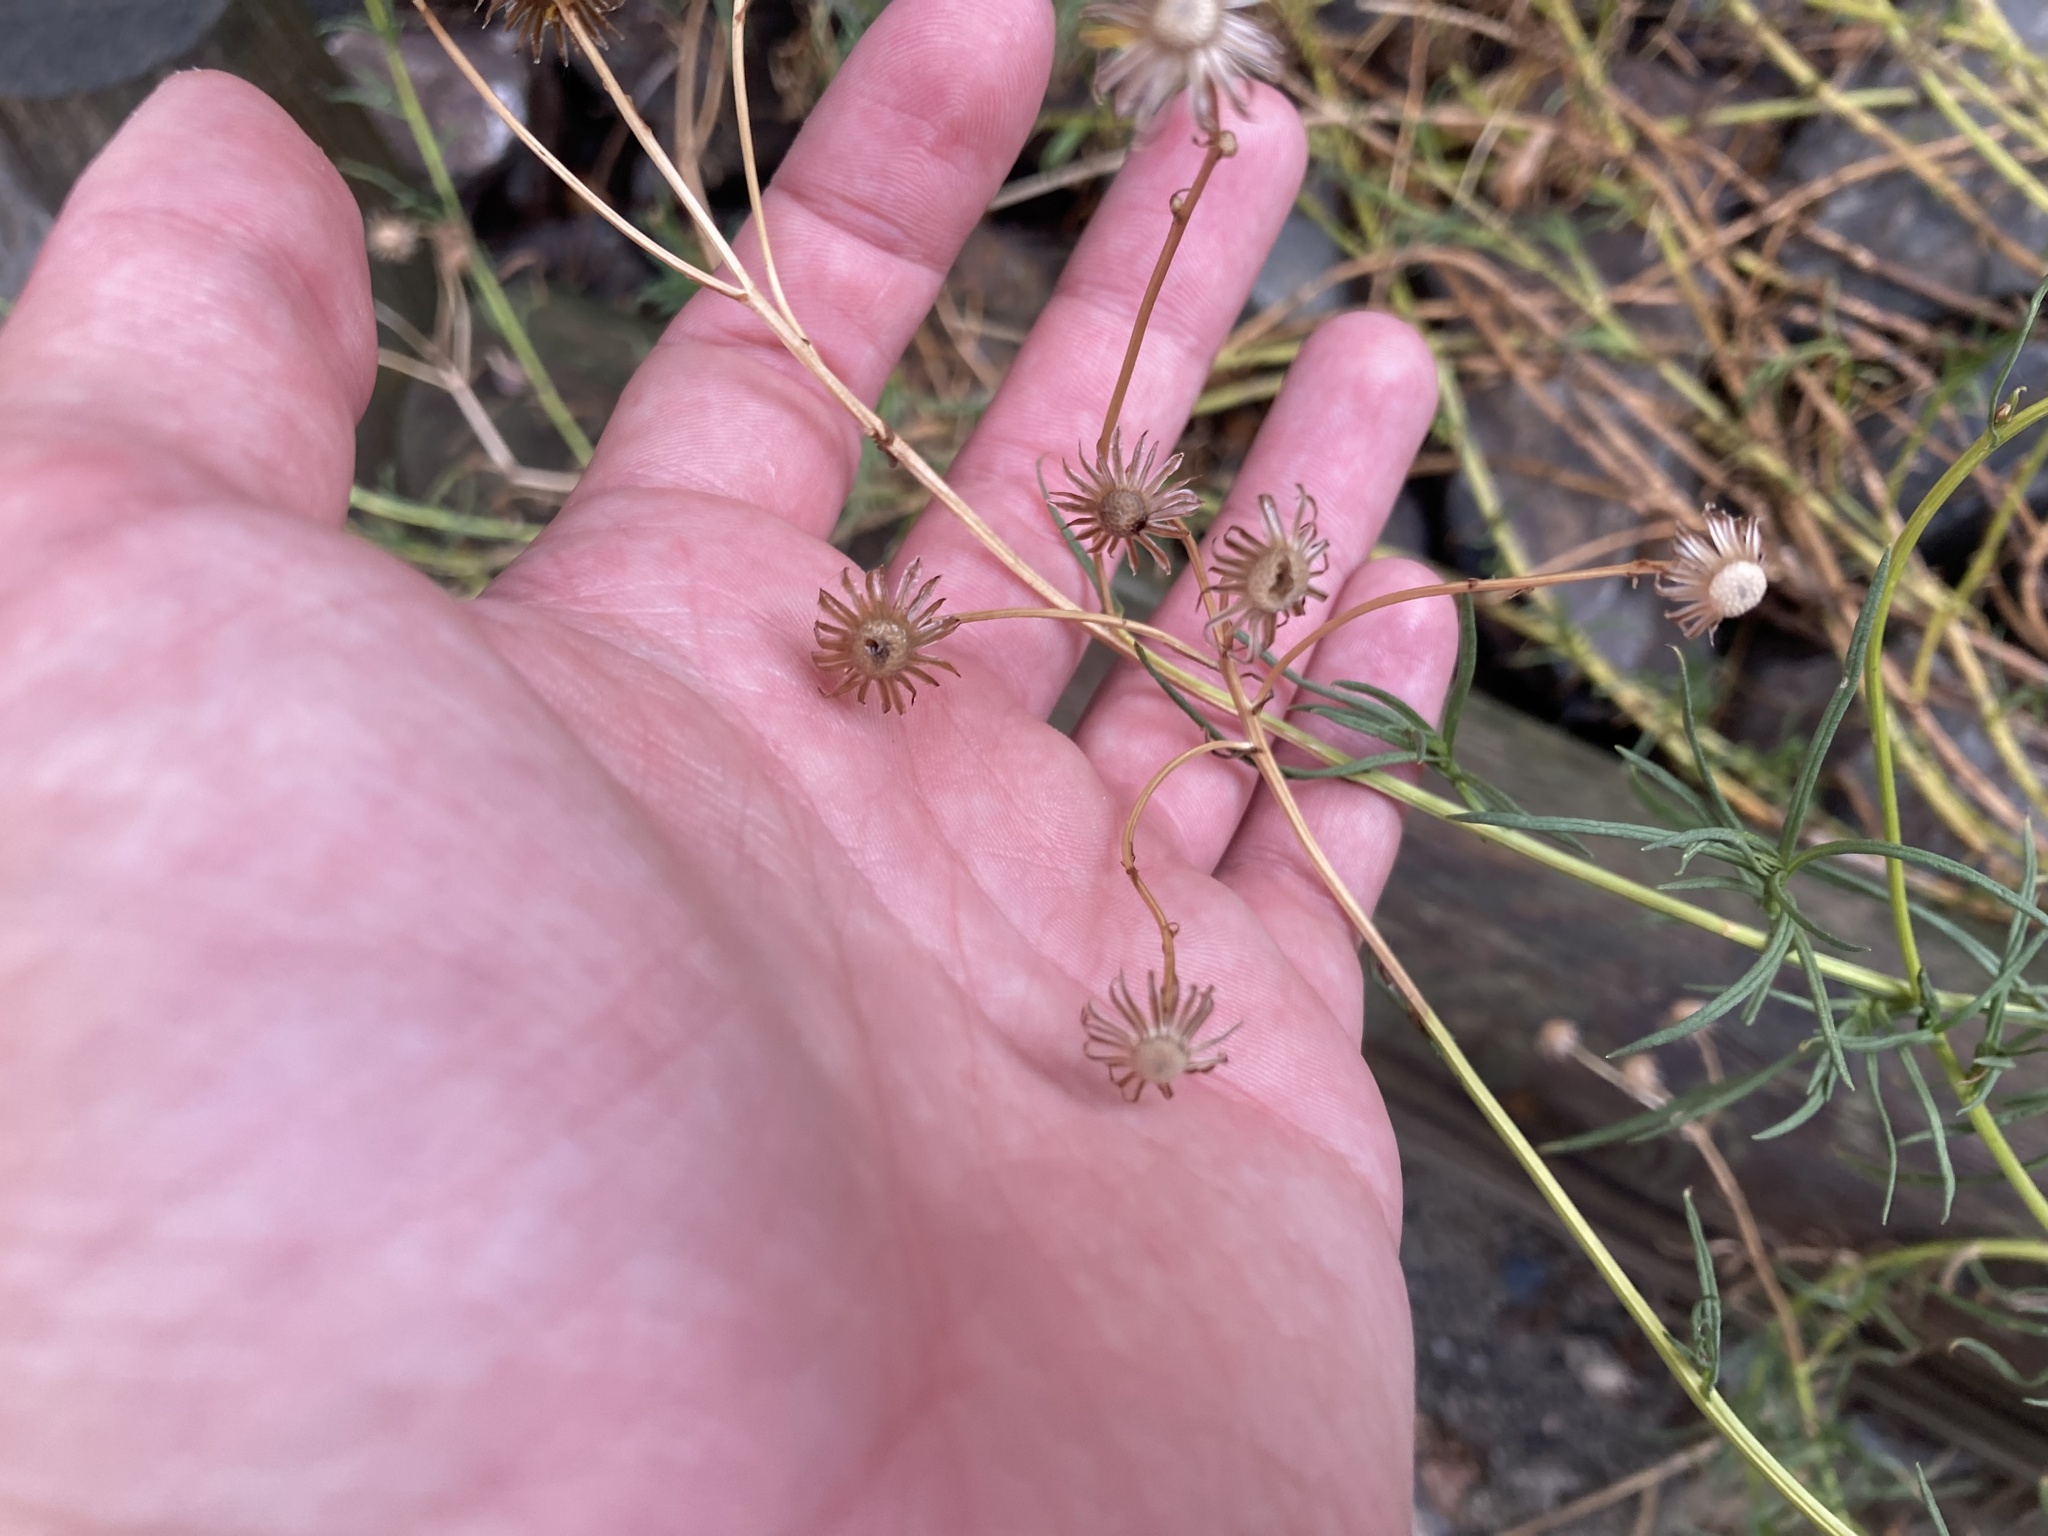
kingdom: Plantae
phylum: Tracheophyta
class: Magnoliopsida
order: Asterales
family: Asteraceae
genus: Senecio
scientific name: Senecio inaequidens
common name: Narrow-leaved ragwort
